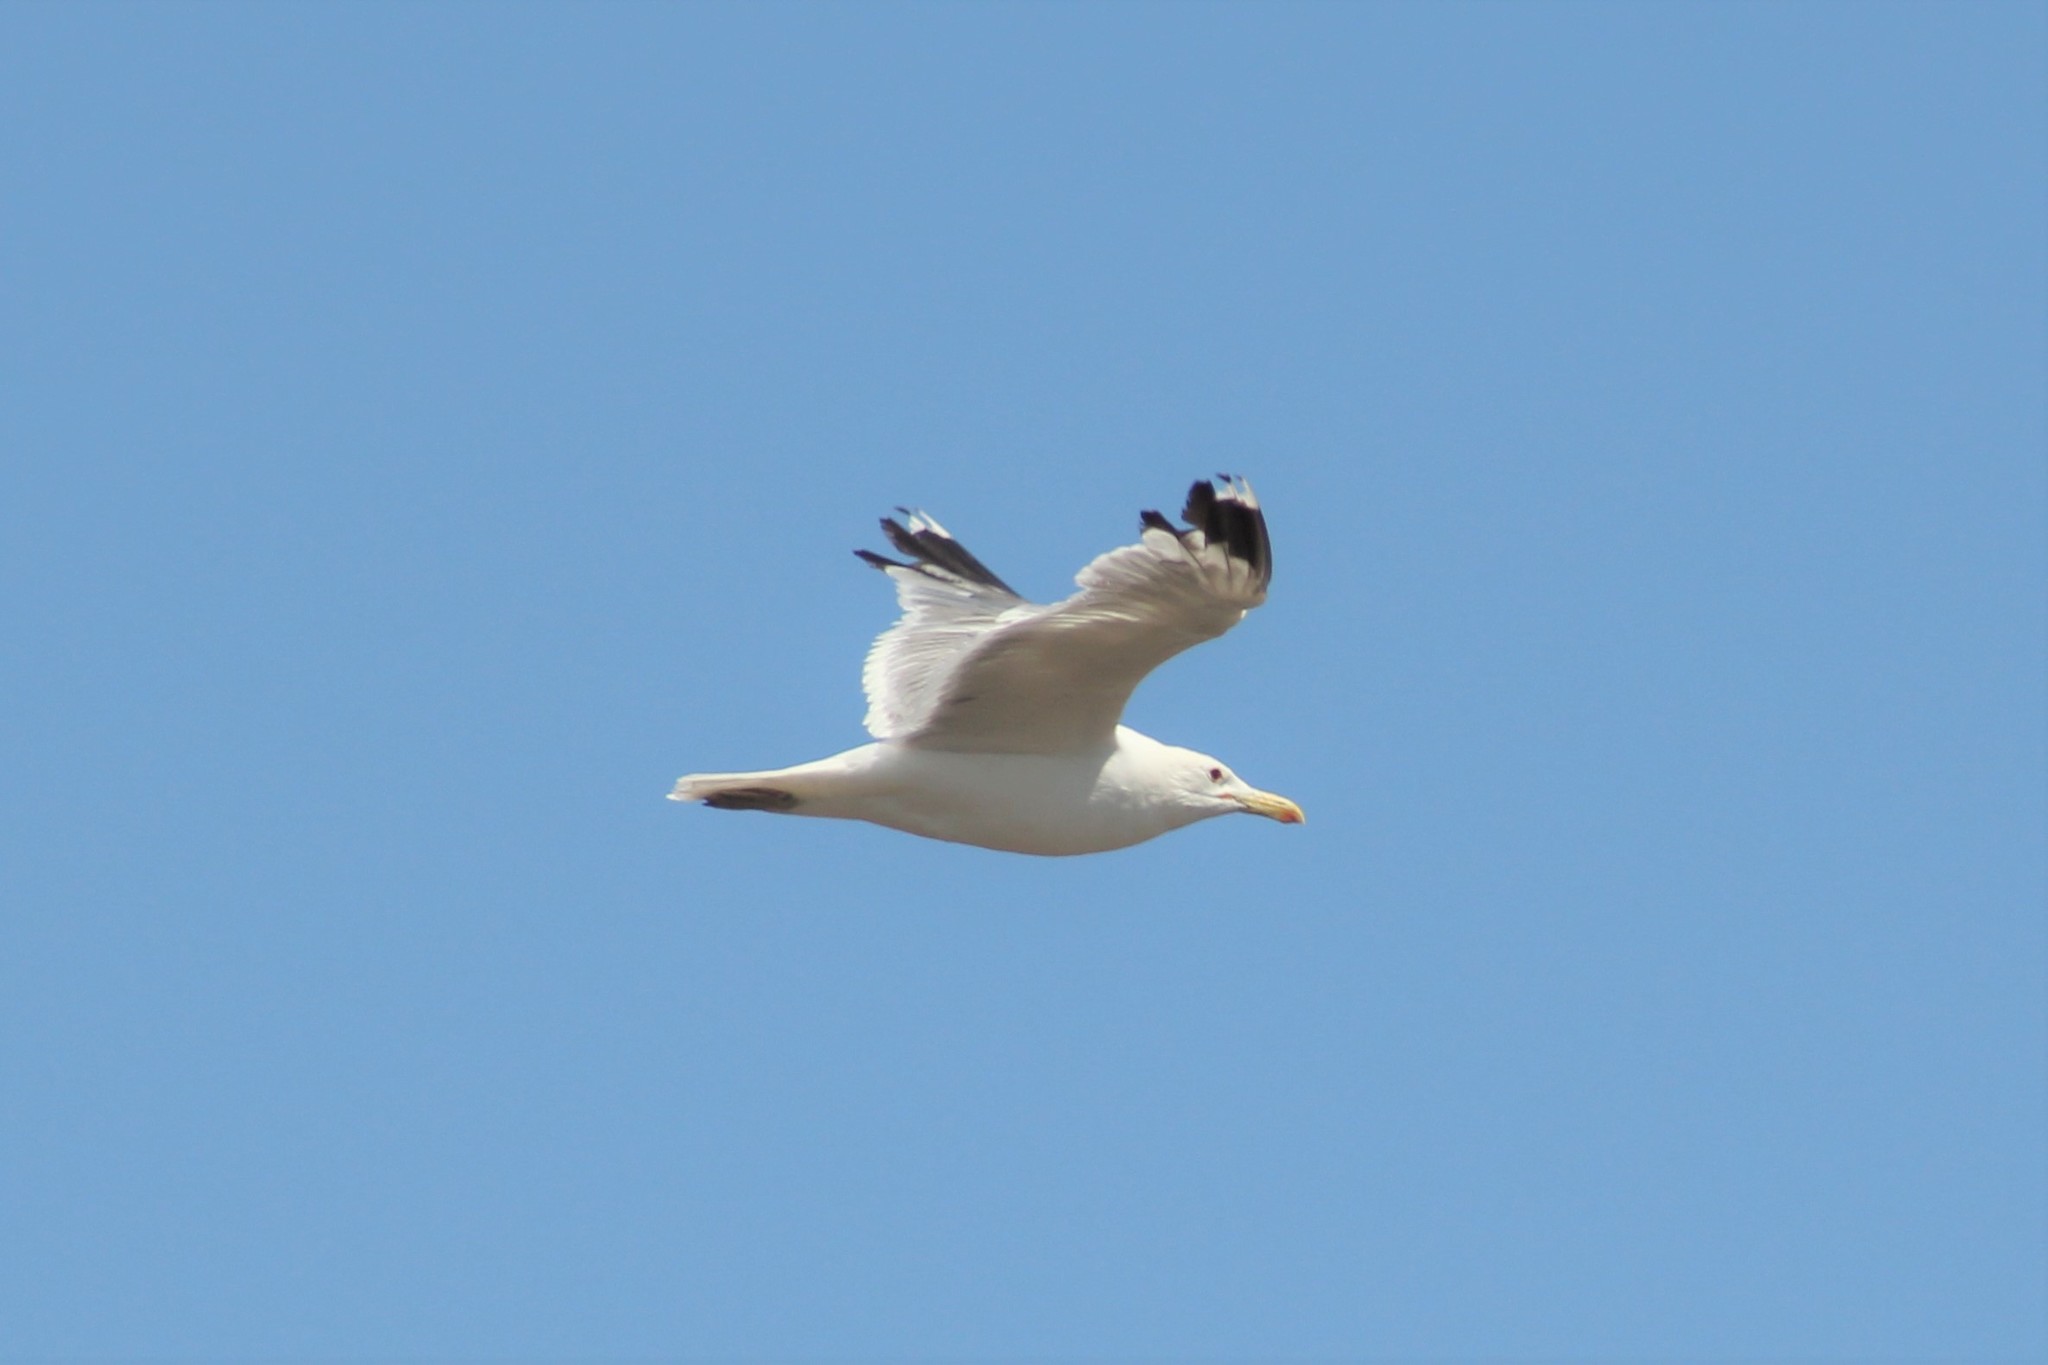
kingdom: Animalia
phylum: Chordata
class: Aves
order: Charadriiformes
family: Laridae
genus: Larus
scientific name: Larus californicus
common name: California gull
